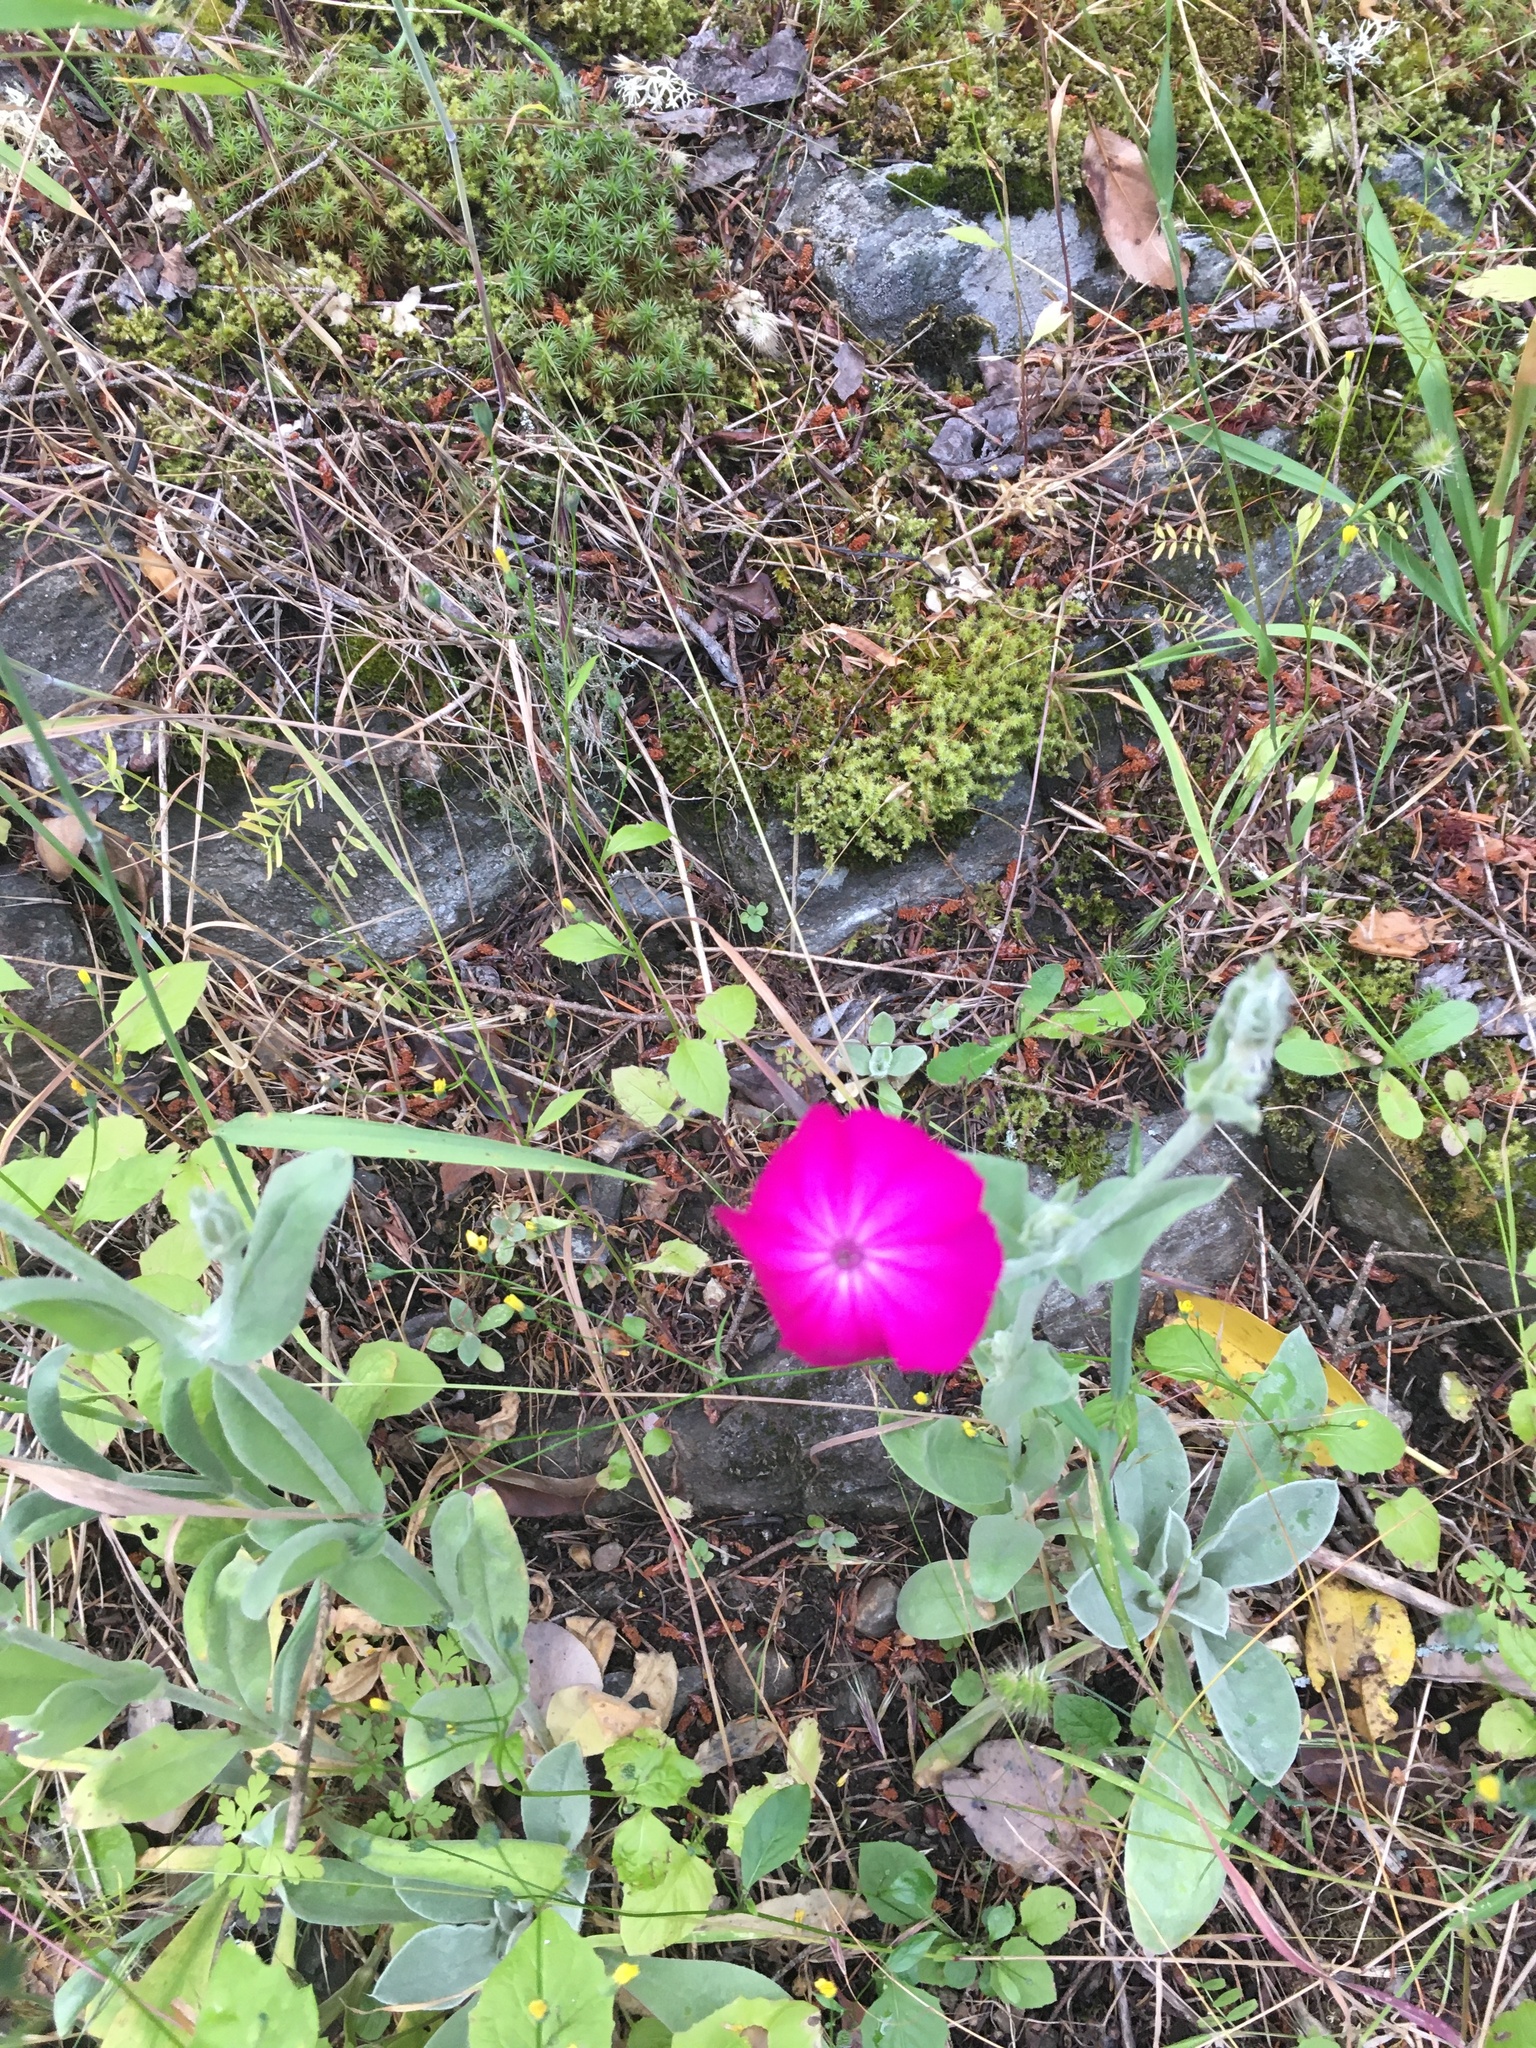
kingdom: Plantae
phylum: Tracheophyta
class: Magnoliopsida
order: Caryophyllales
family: Caryophyllaceae
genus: Silene
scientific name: Silene coronaria
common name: Rose campion
